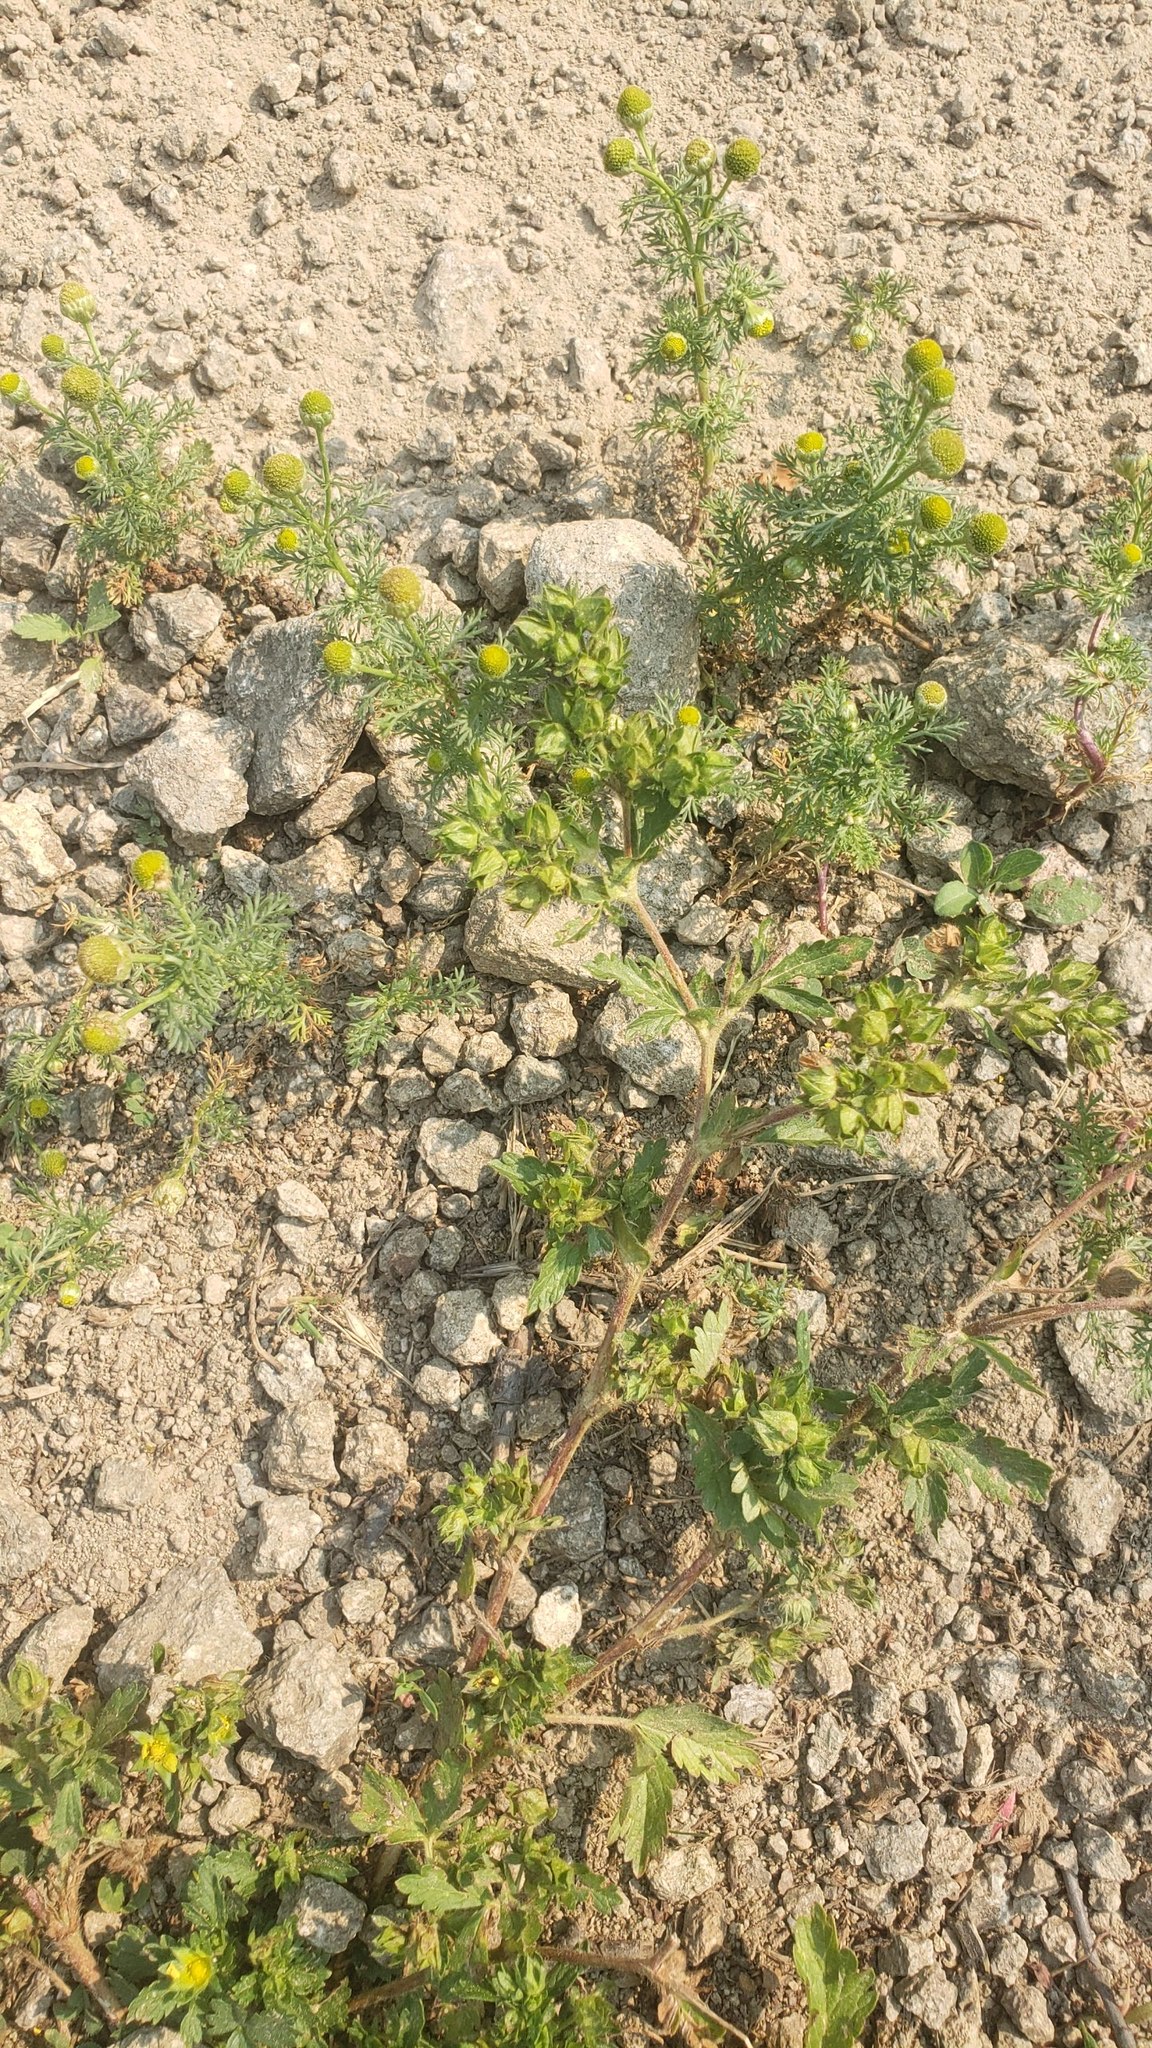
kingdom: Plantae
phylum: Tracheophyta
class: Magnoliopsida
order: Asterales
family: Asteraceae
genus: Matricaria
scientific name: Matricaria discoidea
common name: Disc mayweed
